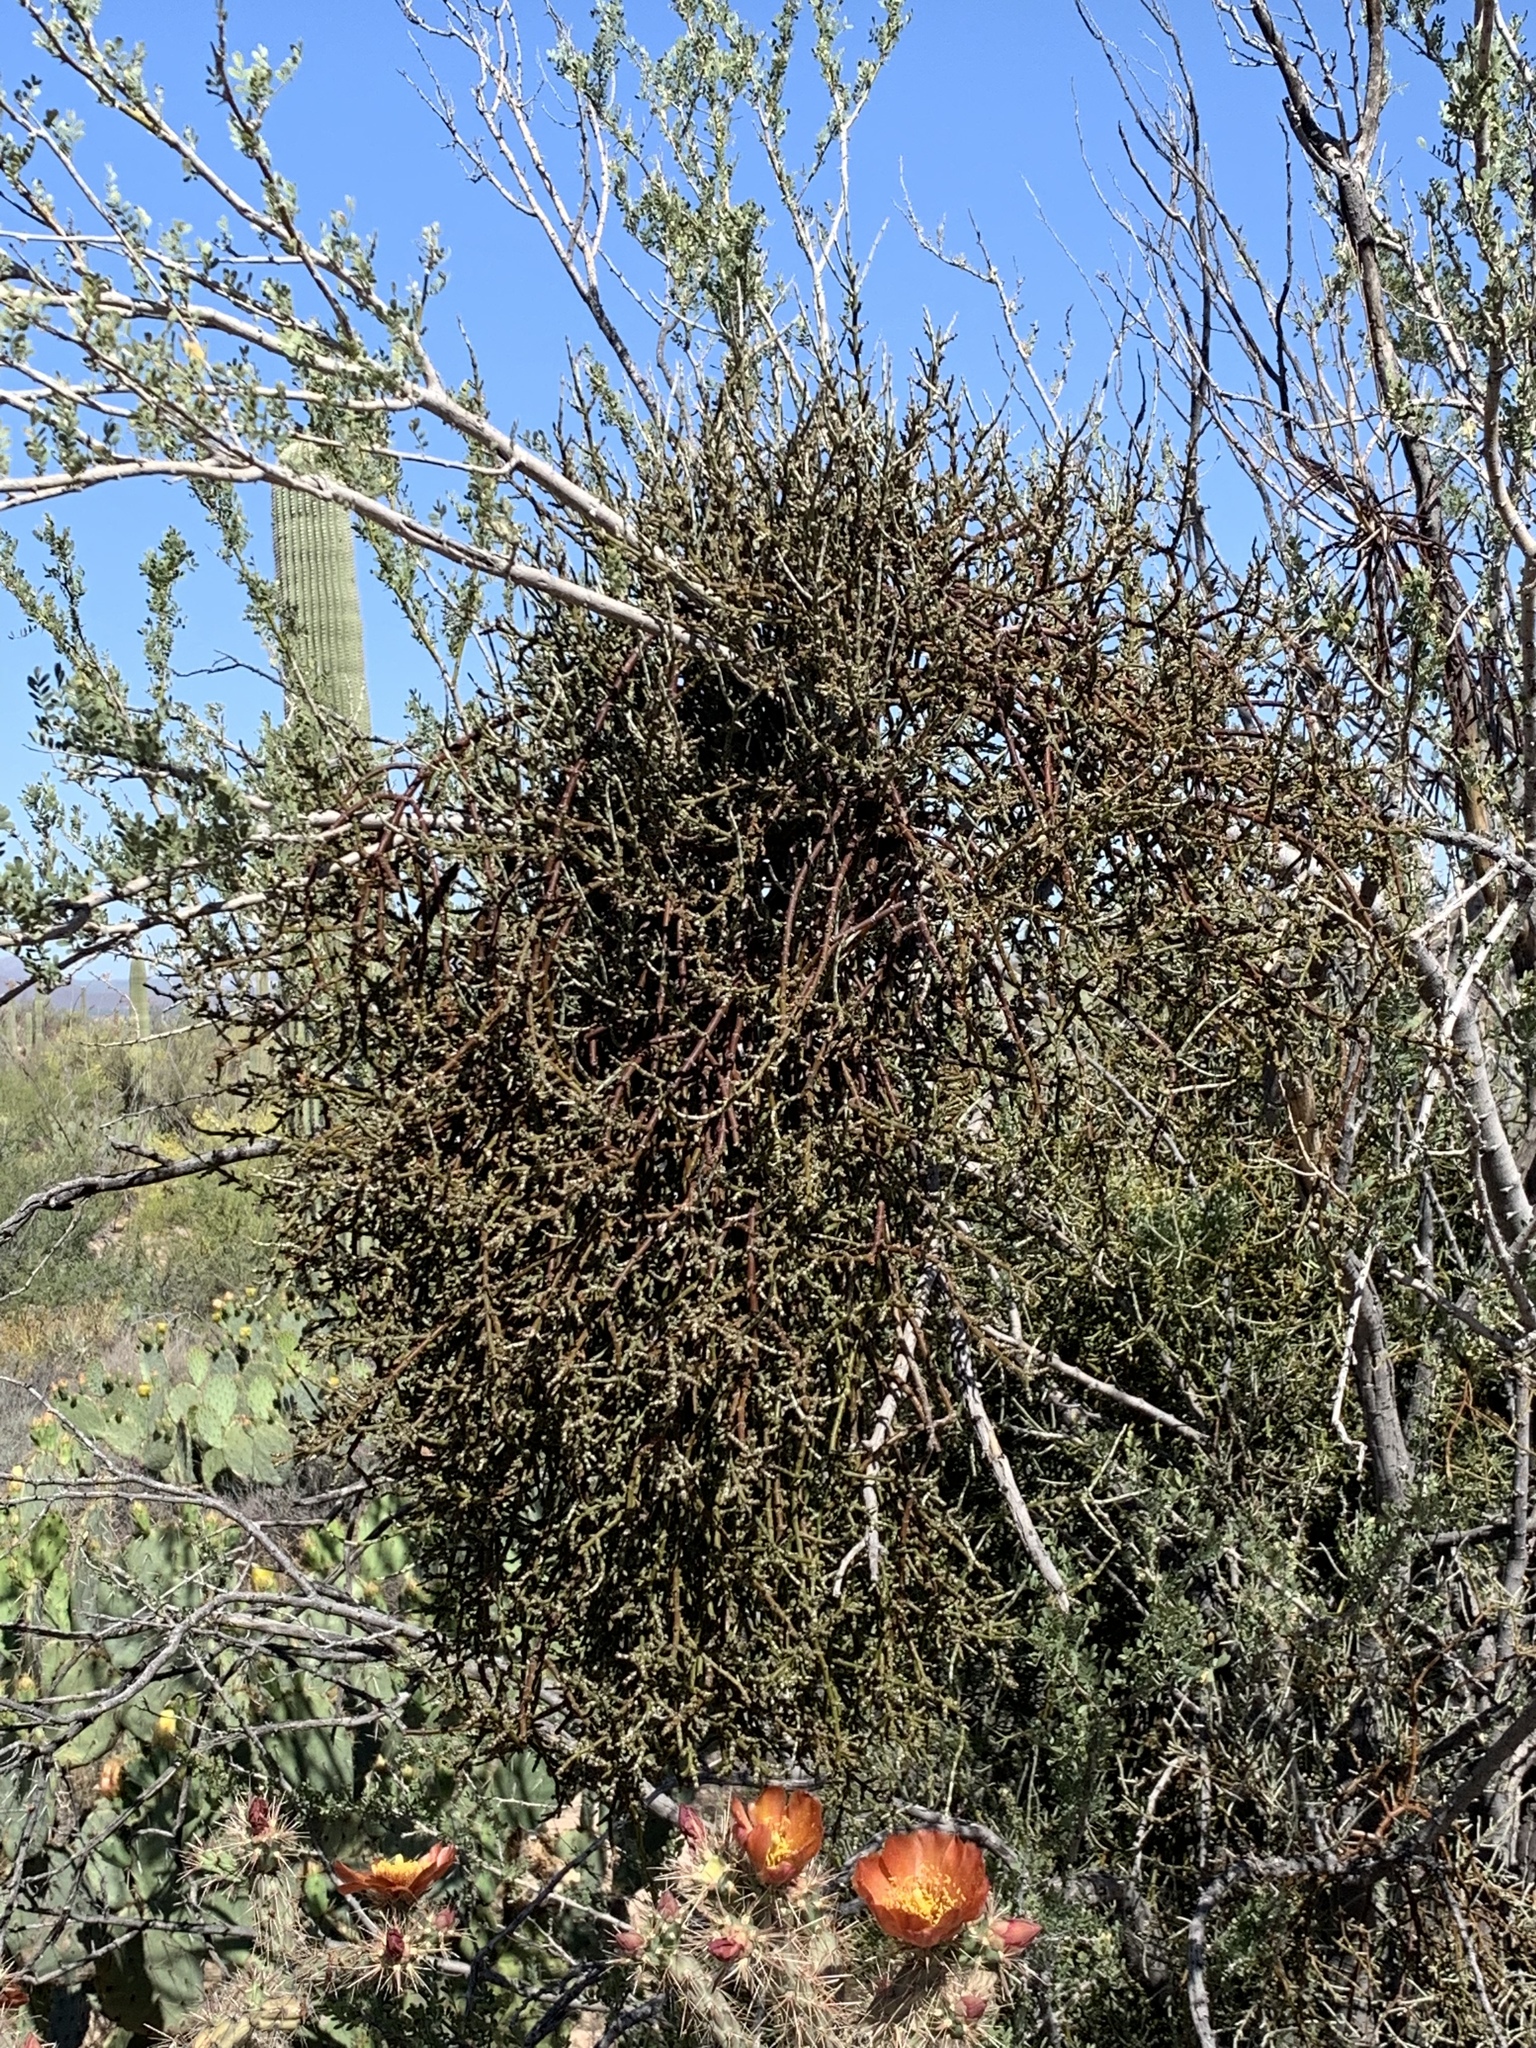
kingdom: Plantae
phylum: Tracheophyta
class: Magnoliopsida
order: Santalales
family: Viscaceae
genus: Phoradendron
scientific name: Phoradendron californicum
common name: Acacia mistletoe
